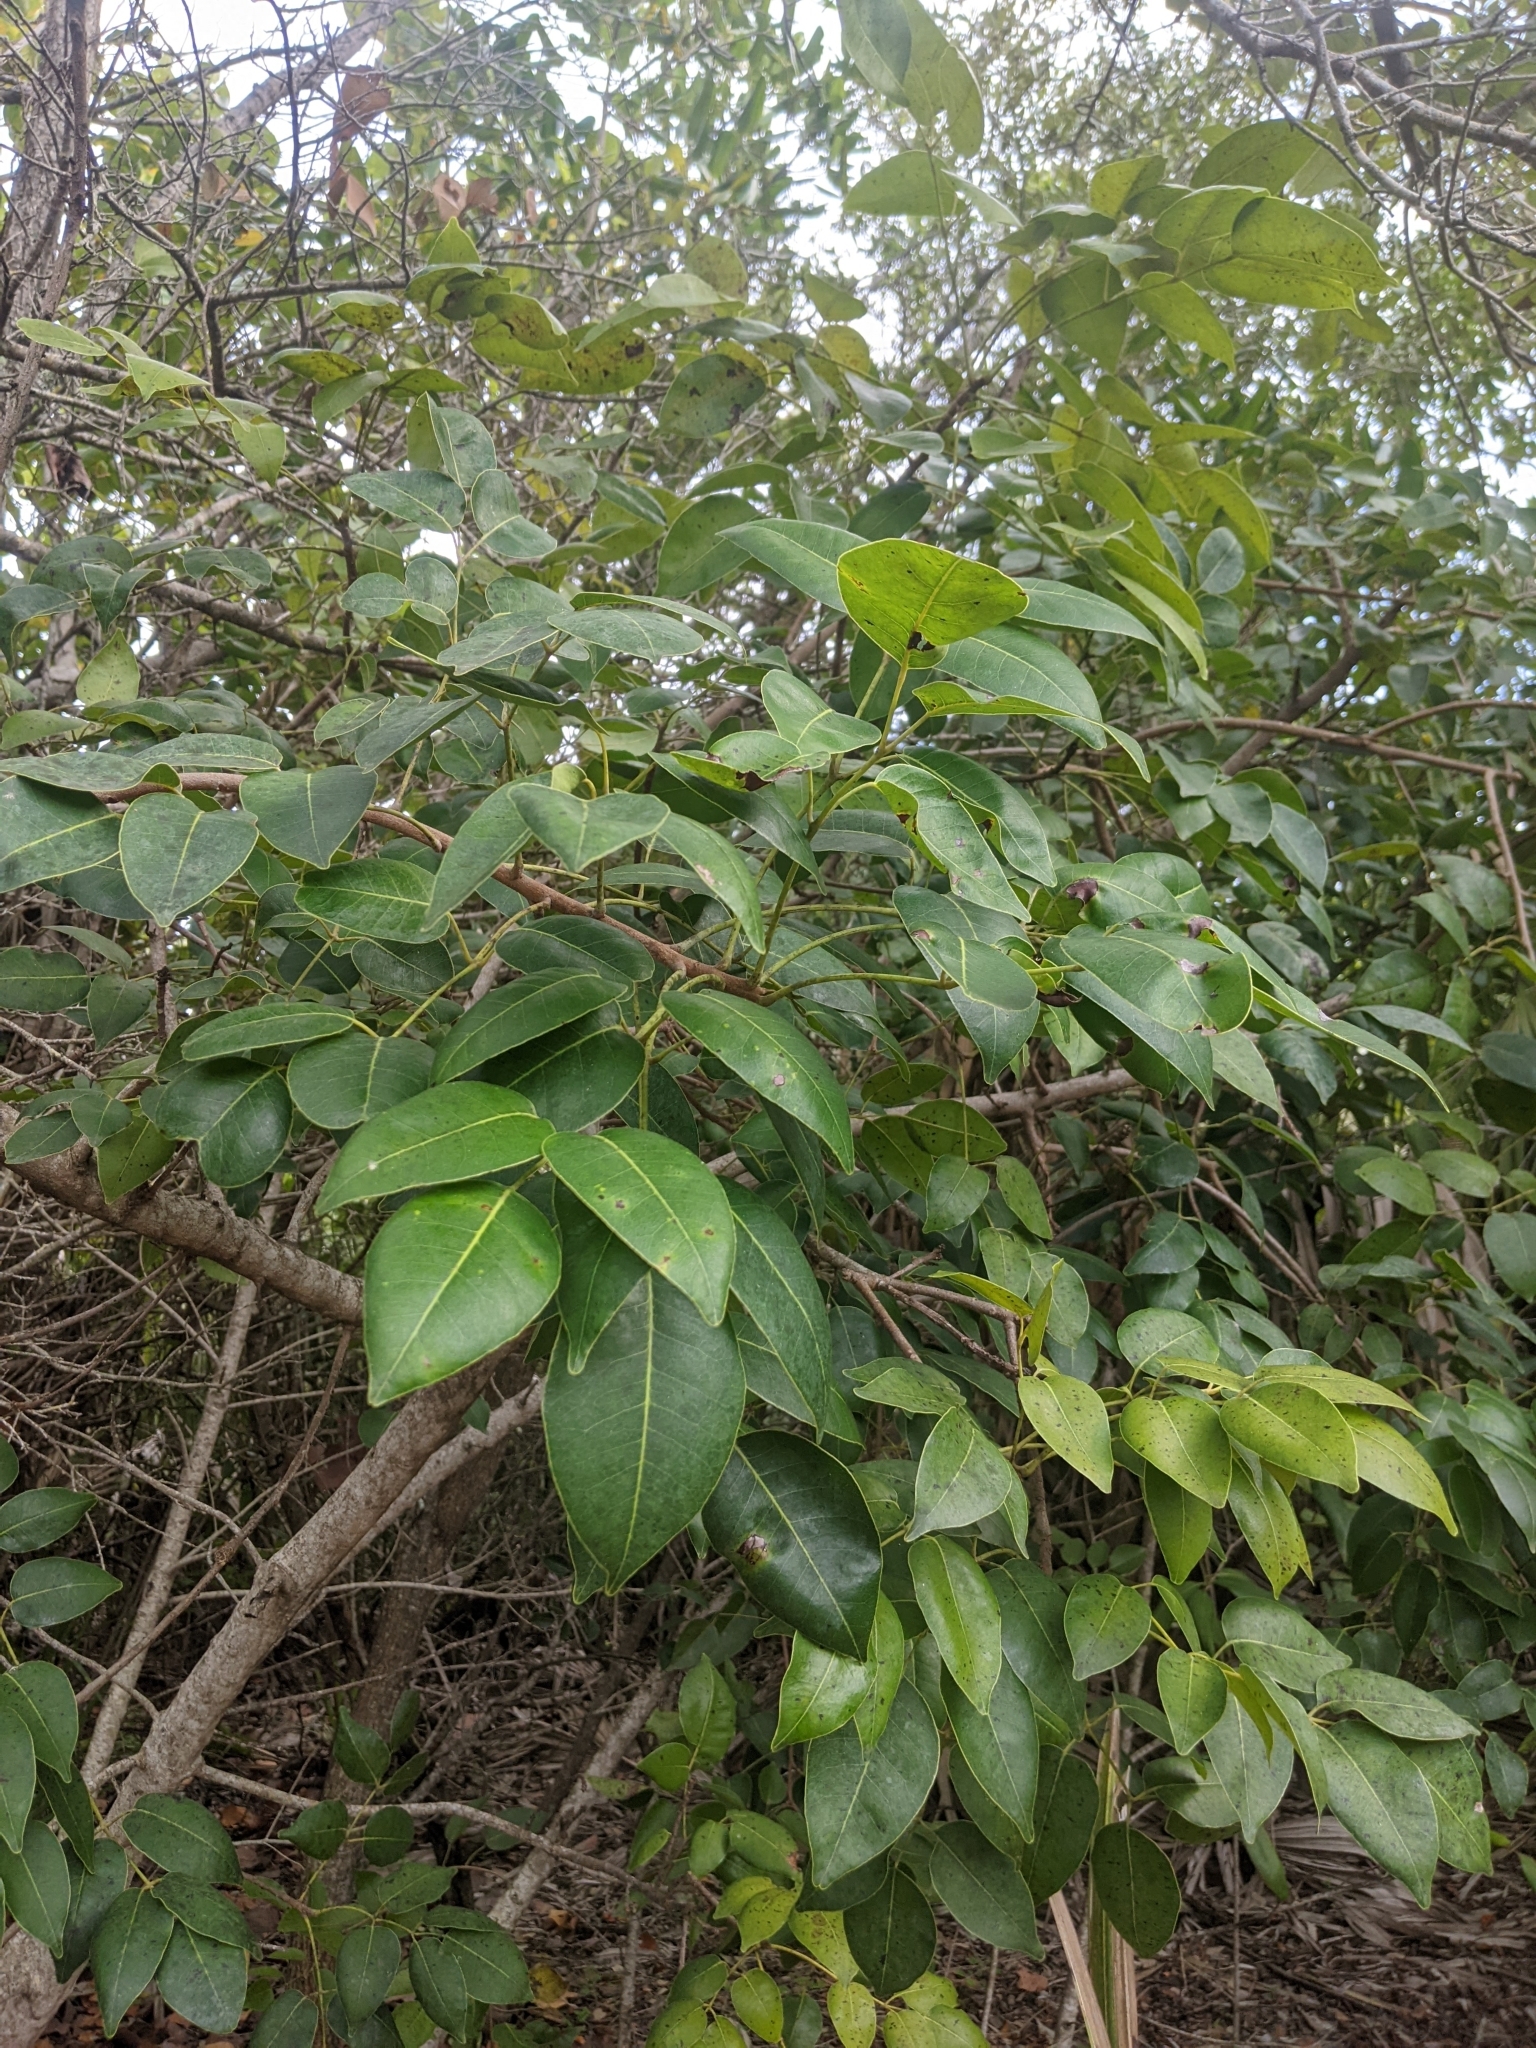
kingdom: Plantae
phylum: Tracheophyta
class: Magnoliopsida
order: Sapindales
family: Anacardiaceae
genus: Metopium
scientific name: Metopium toxiferum
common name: Florida poisontree
